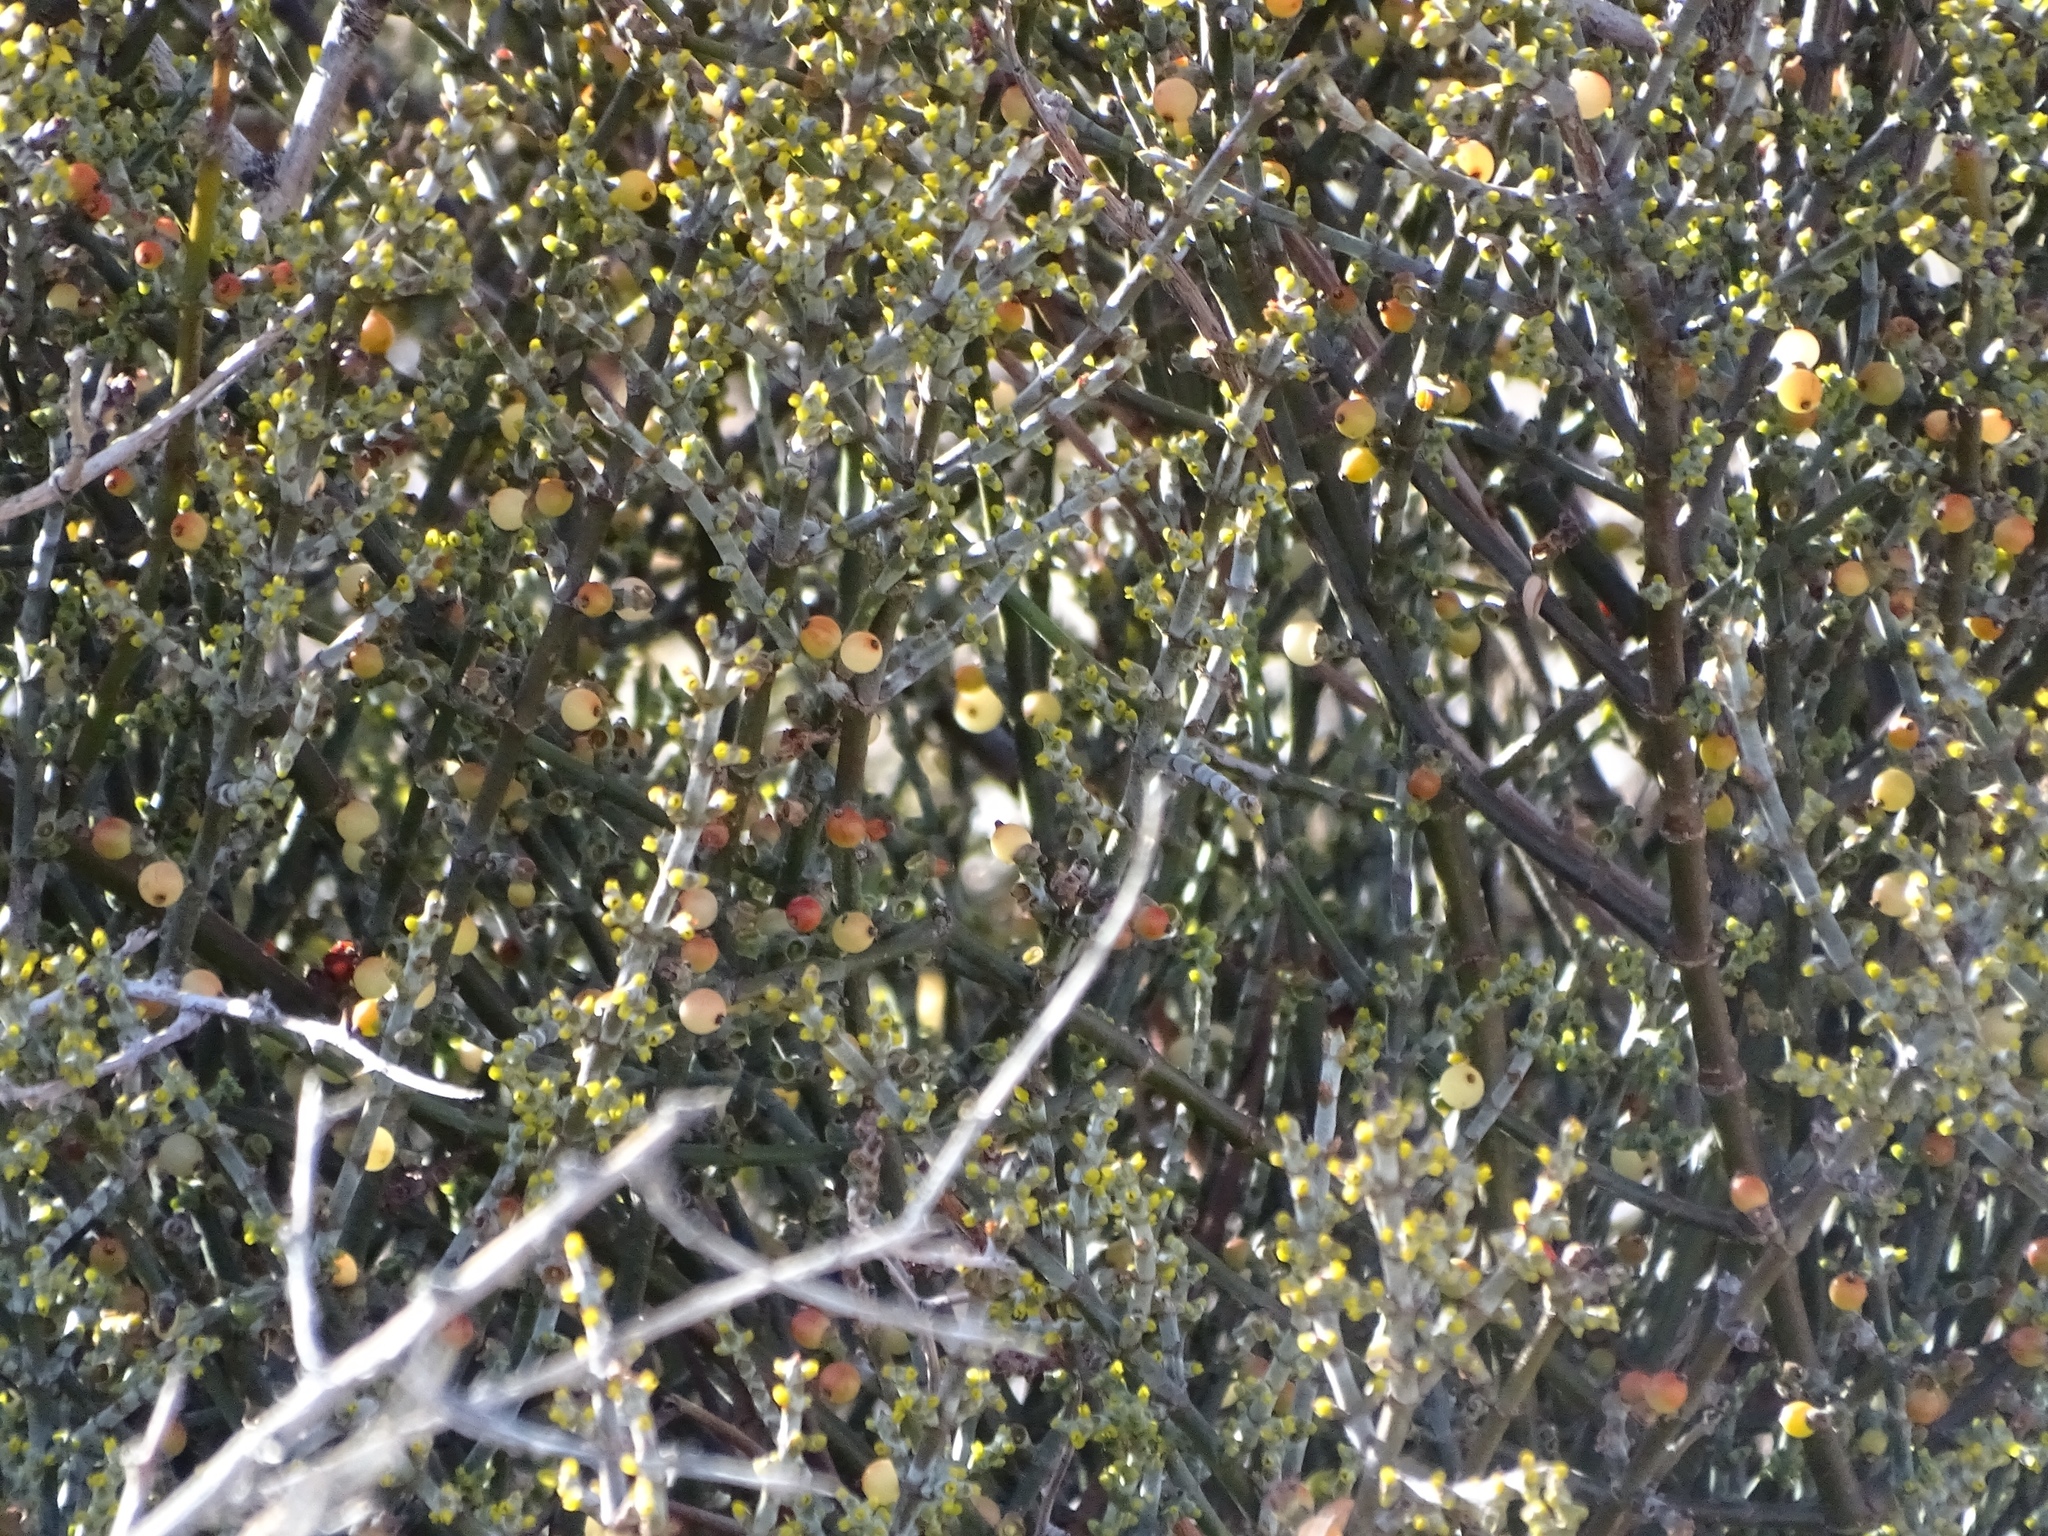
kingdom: Plantae
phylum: Tracheophyta
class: Magnoliopsida
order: Santalales
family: Viscaceae
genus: Phoradendron
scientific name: Phoradendron californicum
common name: Acacia mistletoe
